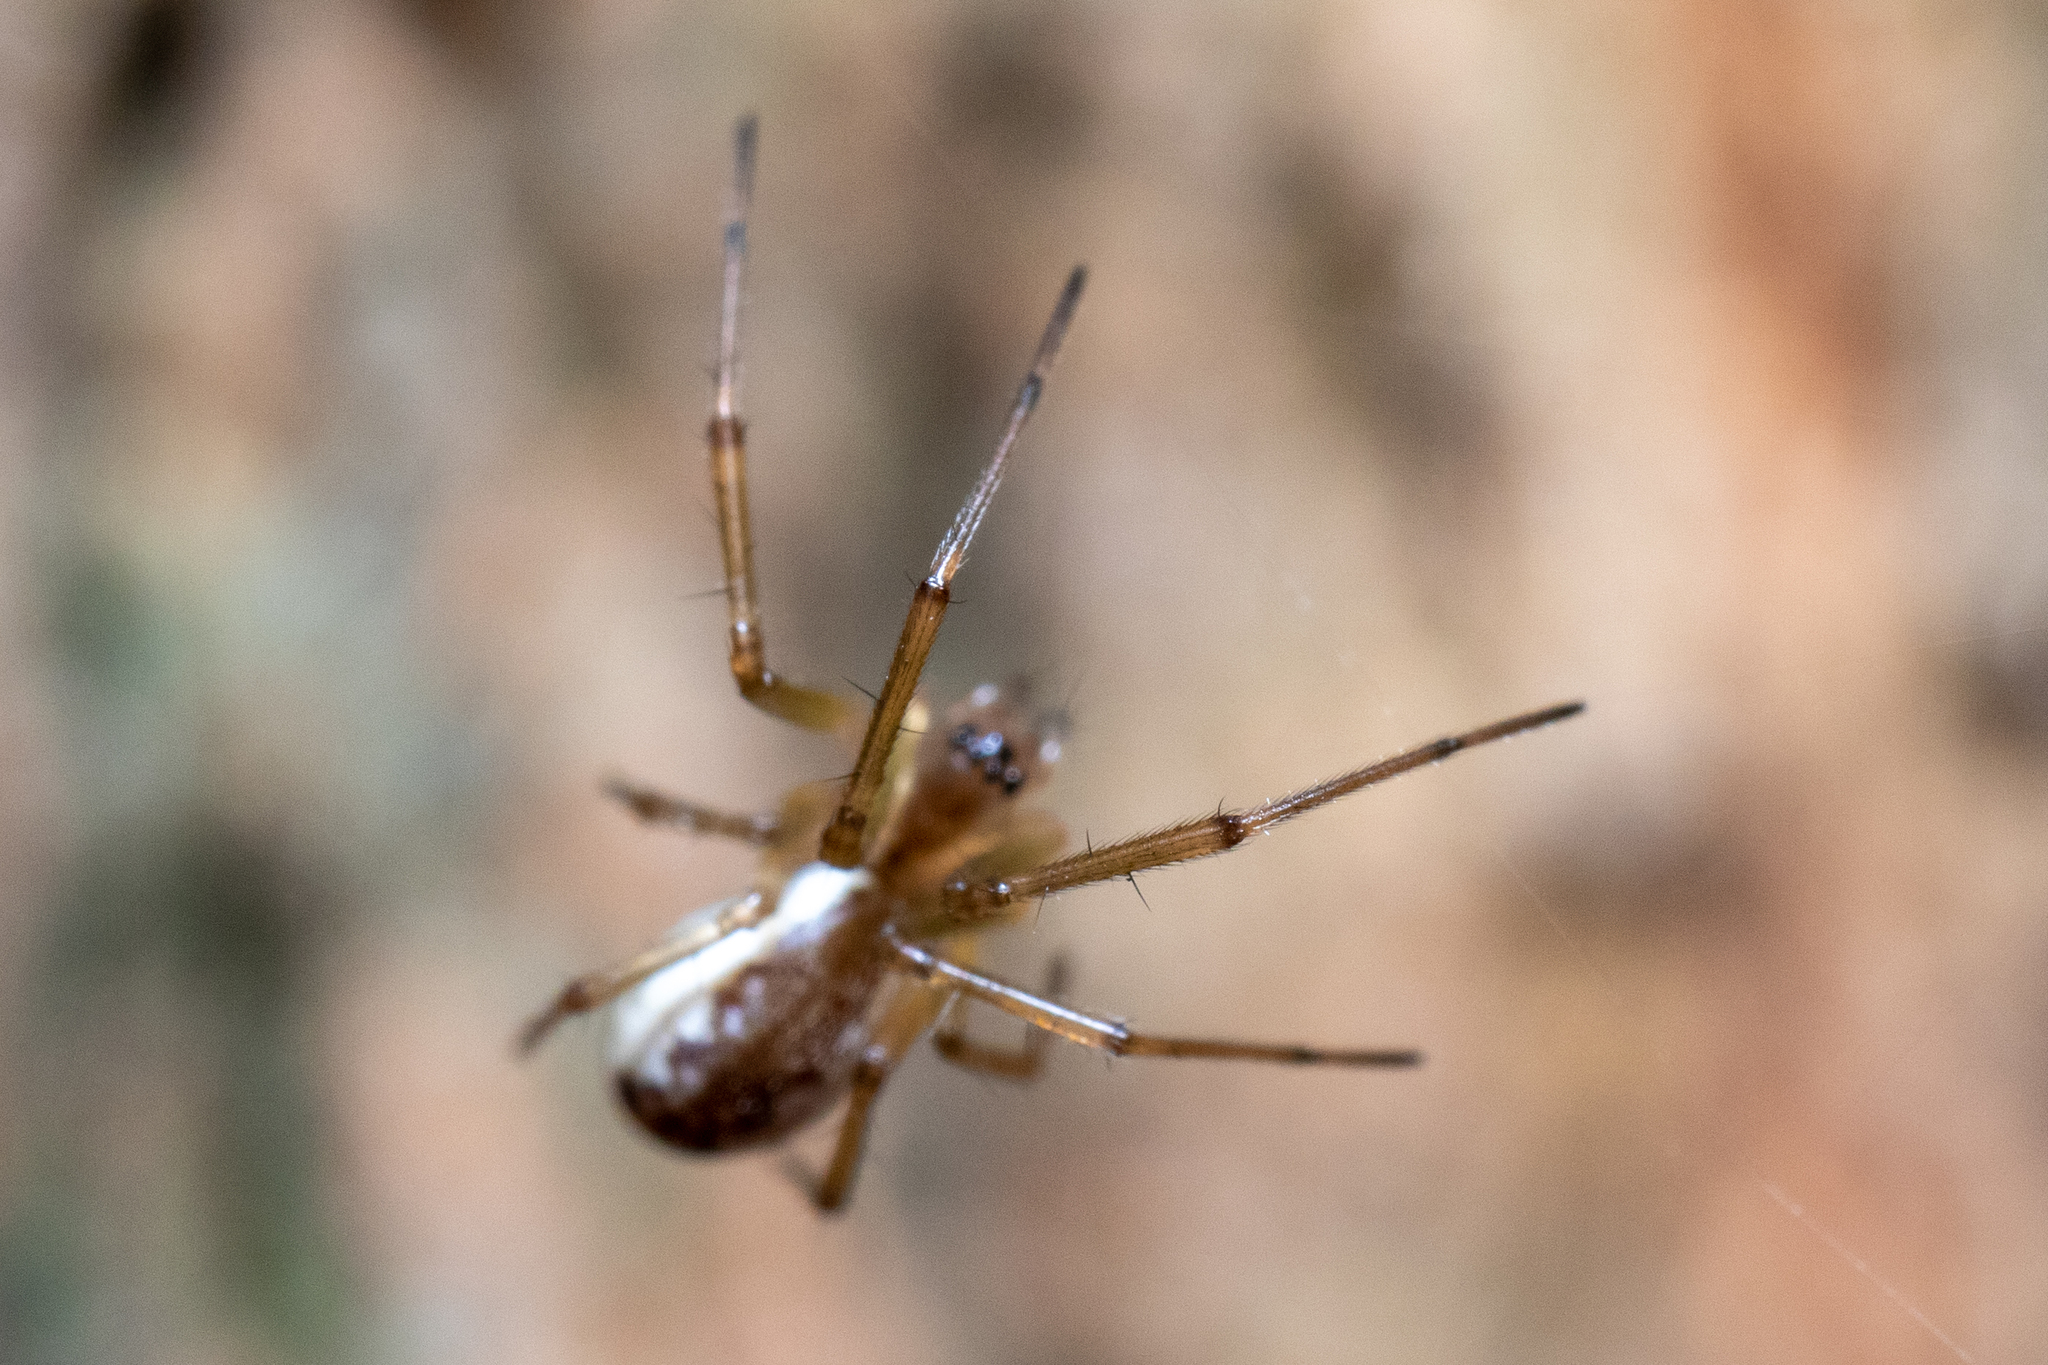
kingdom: Animalia
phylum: Arthropoda
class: Arachnida
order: Araneae
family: Linyphiidae
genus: Neriene
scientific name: Neriene peltata
